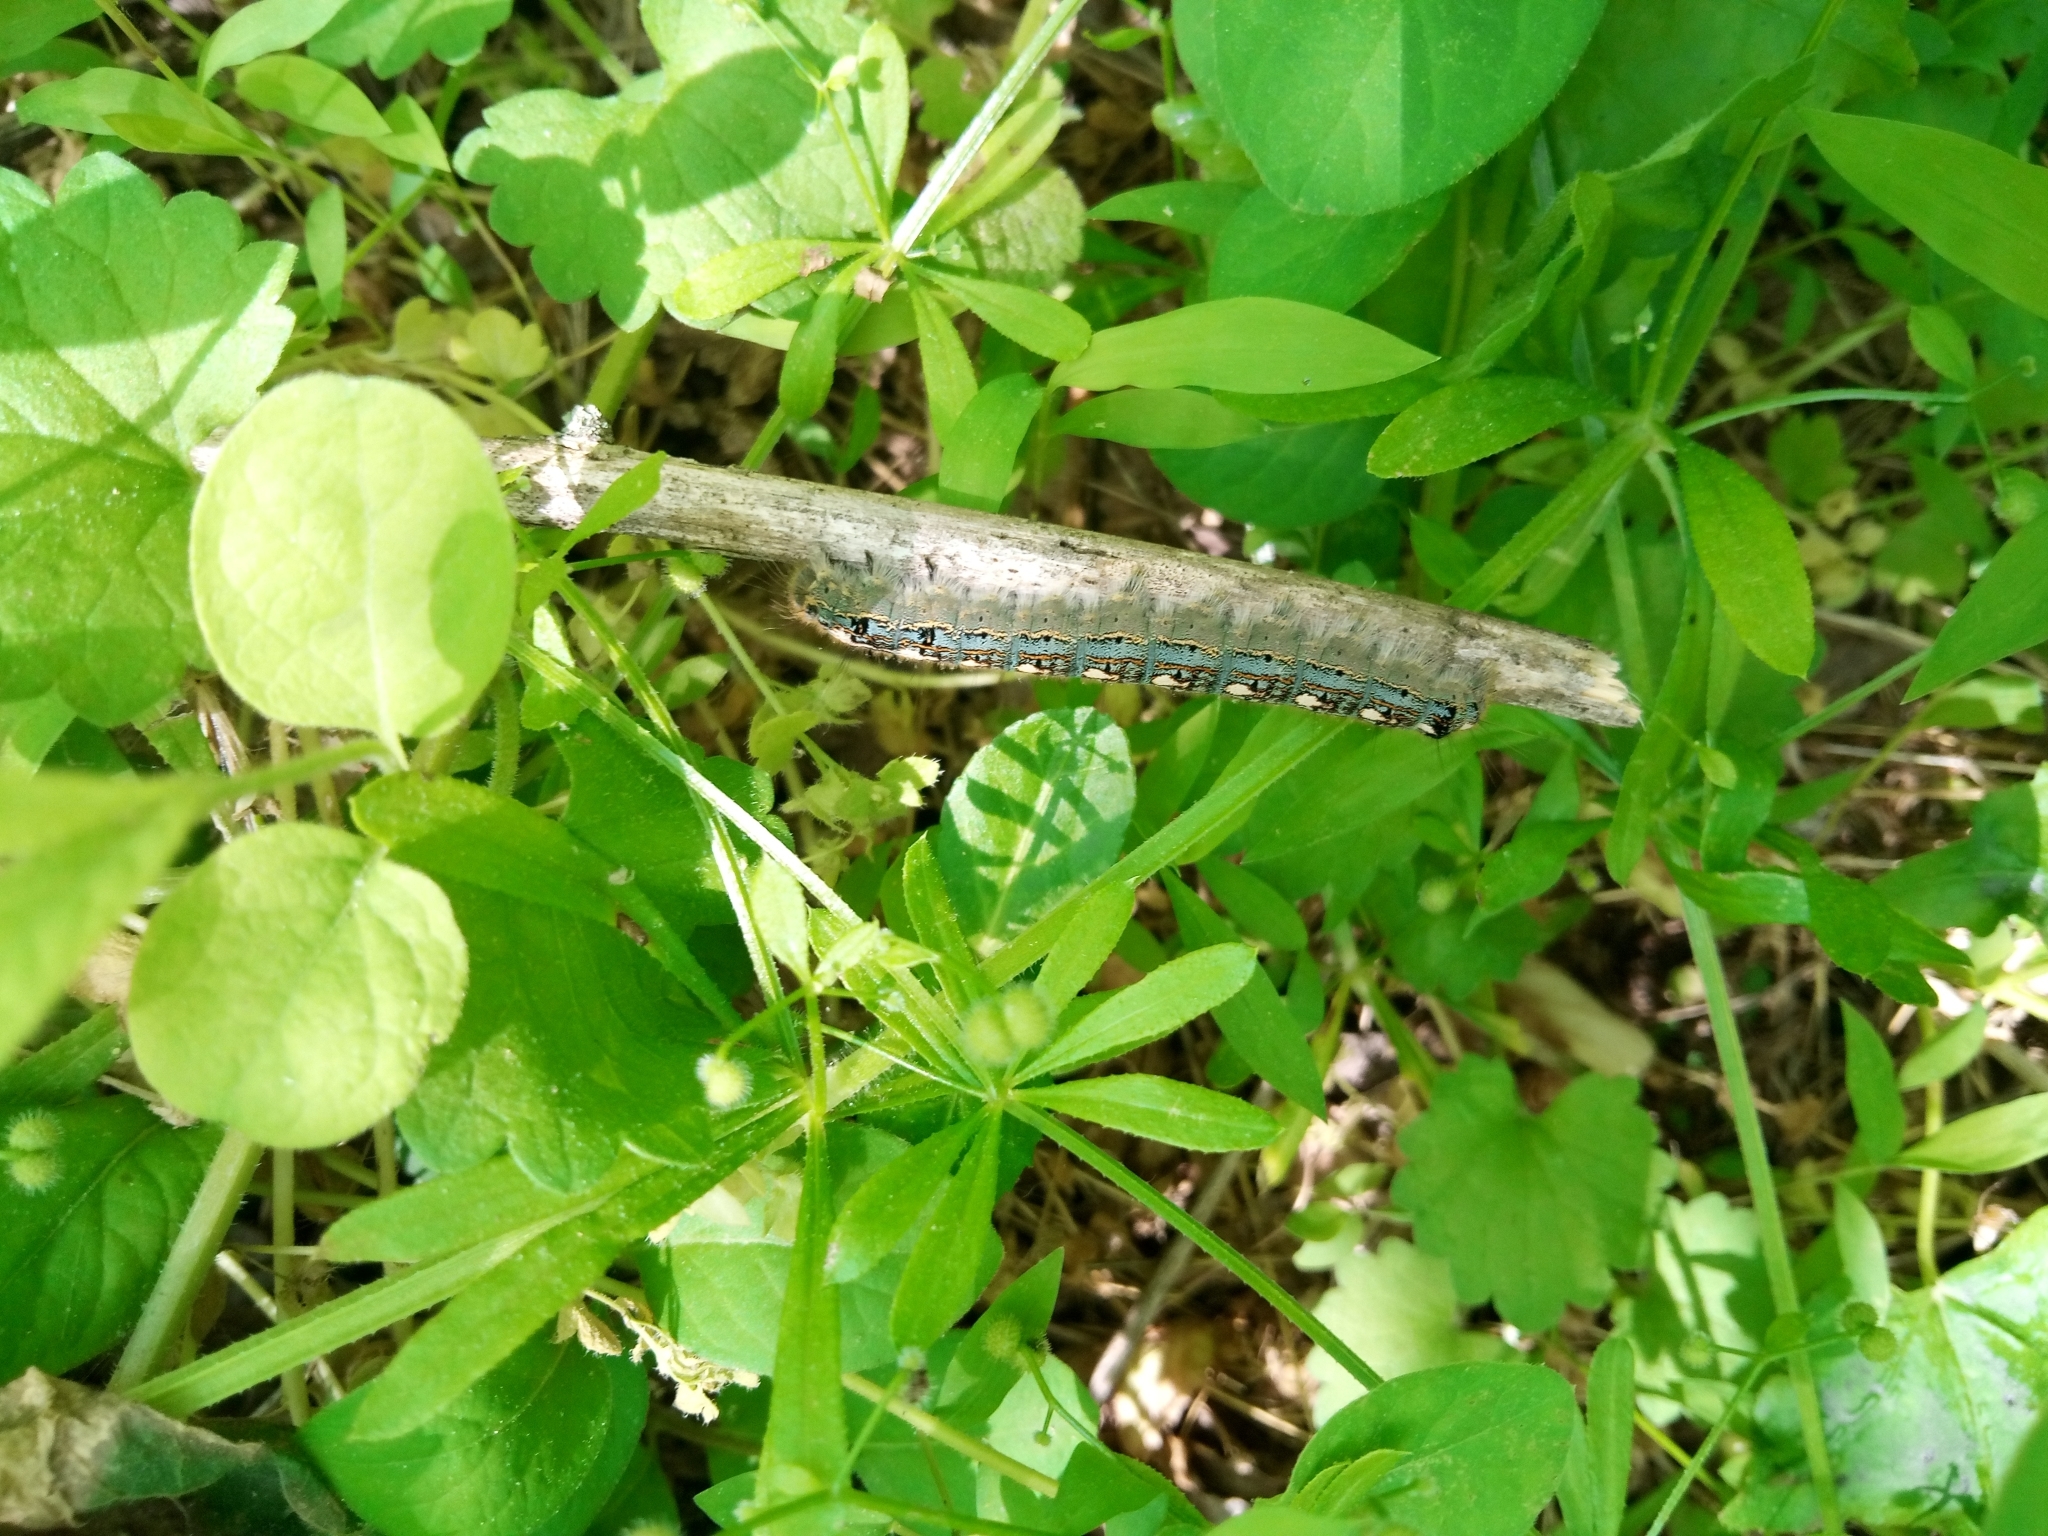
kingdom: Animalia
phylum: Arthropoda
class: Insecta
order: Lepidoptera
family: Lasiocampidae
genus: Malacosoma
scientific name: Malacosoma disstria
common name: Forest tent caterpillar
